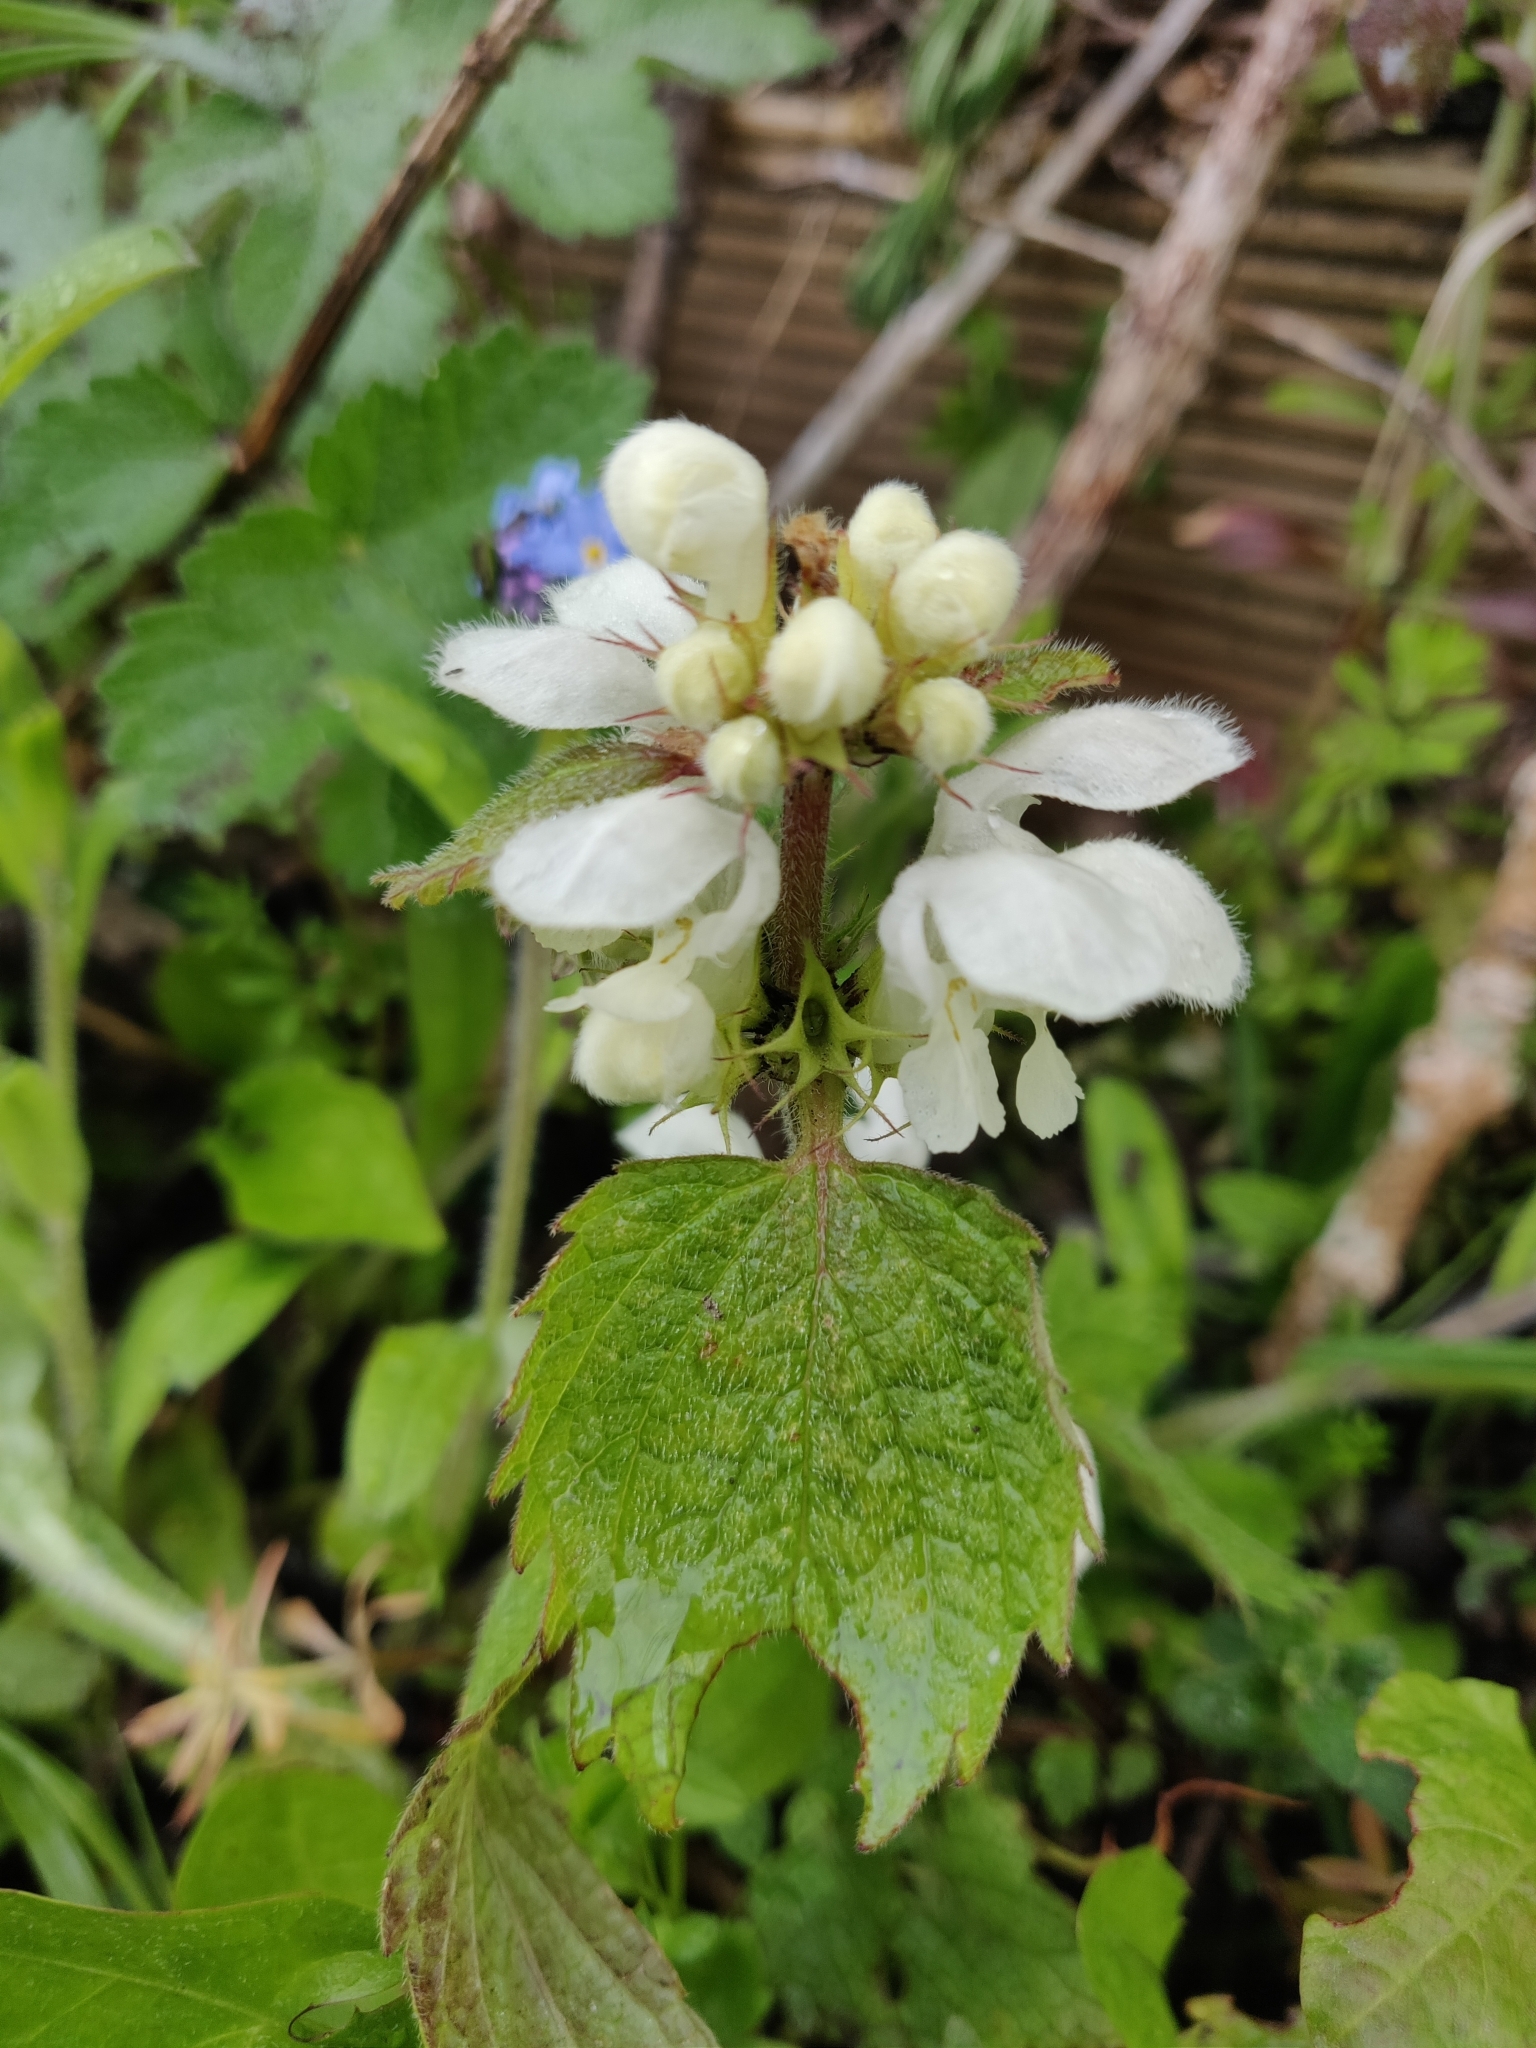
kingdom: Plantae
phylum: Tracheophyta
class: Magnoliopsida
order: Lamiales
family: Lamiaceae
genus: Lamium
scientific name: Lamium album
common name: White dead-nettle
